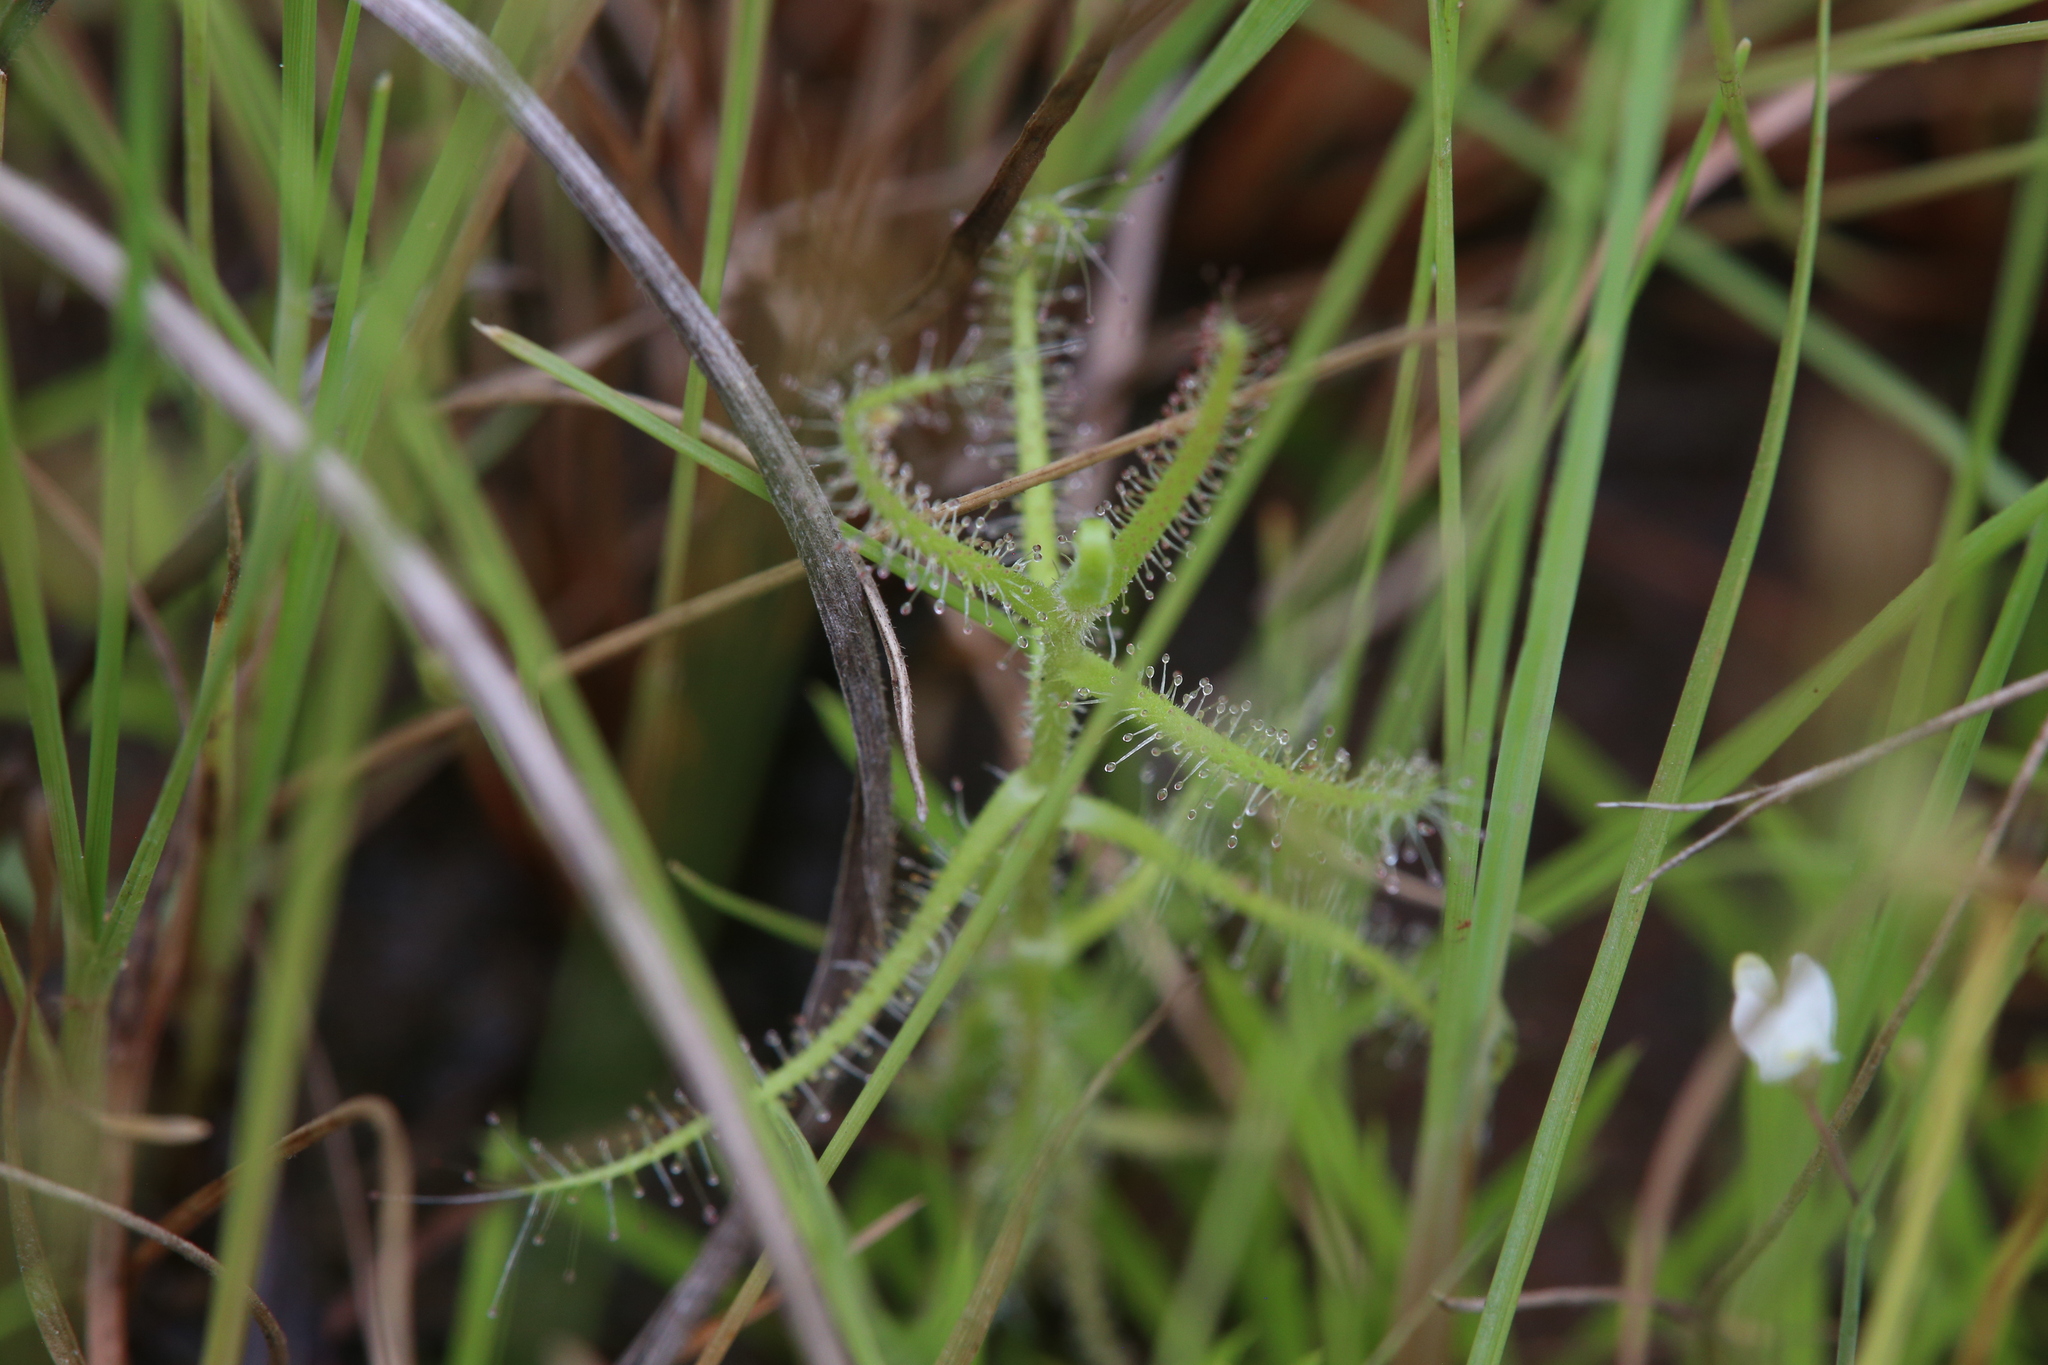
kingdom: Plantae
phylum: Tracheophyta
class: Magnoliopsida
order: Caryophyllales
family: Droseraceae
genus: Drosera
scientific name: Drosera aquatica
